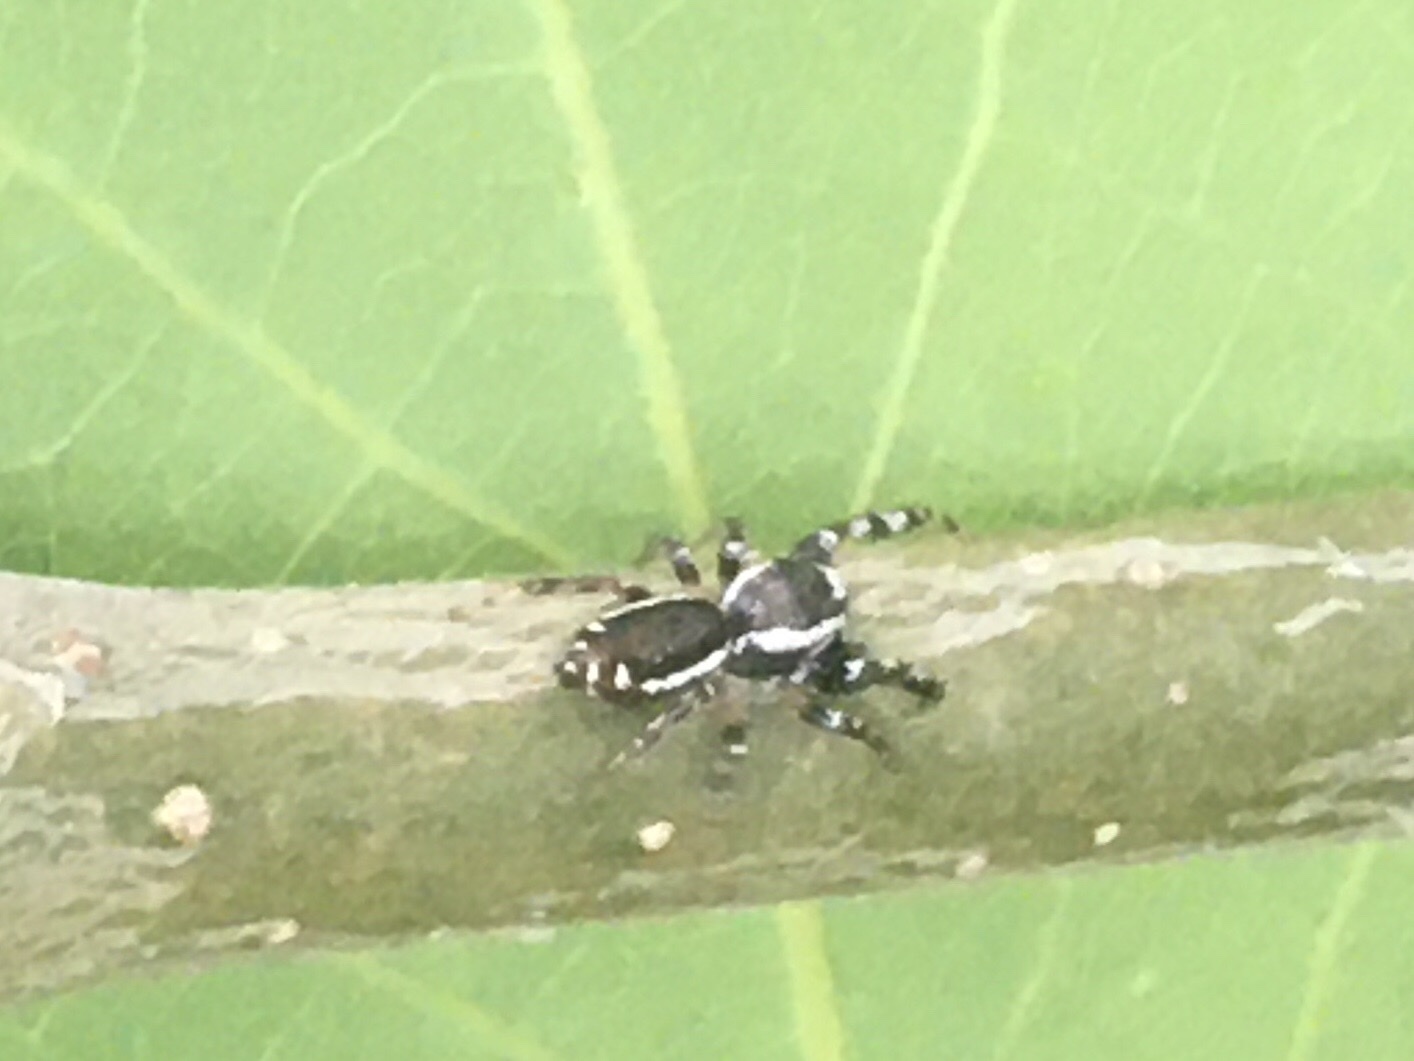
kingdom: Animalia
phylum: Arthropoda
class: Arachnida
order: Araneae
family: Salticidae
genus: Pelegrina
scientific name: Pelegrina proterva
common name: Common white-cheeked jumping spider
